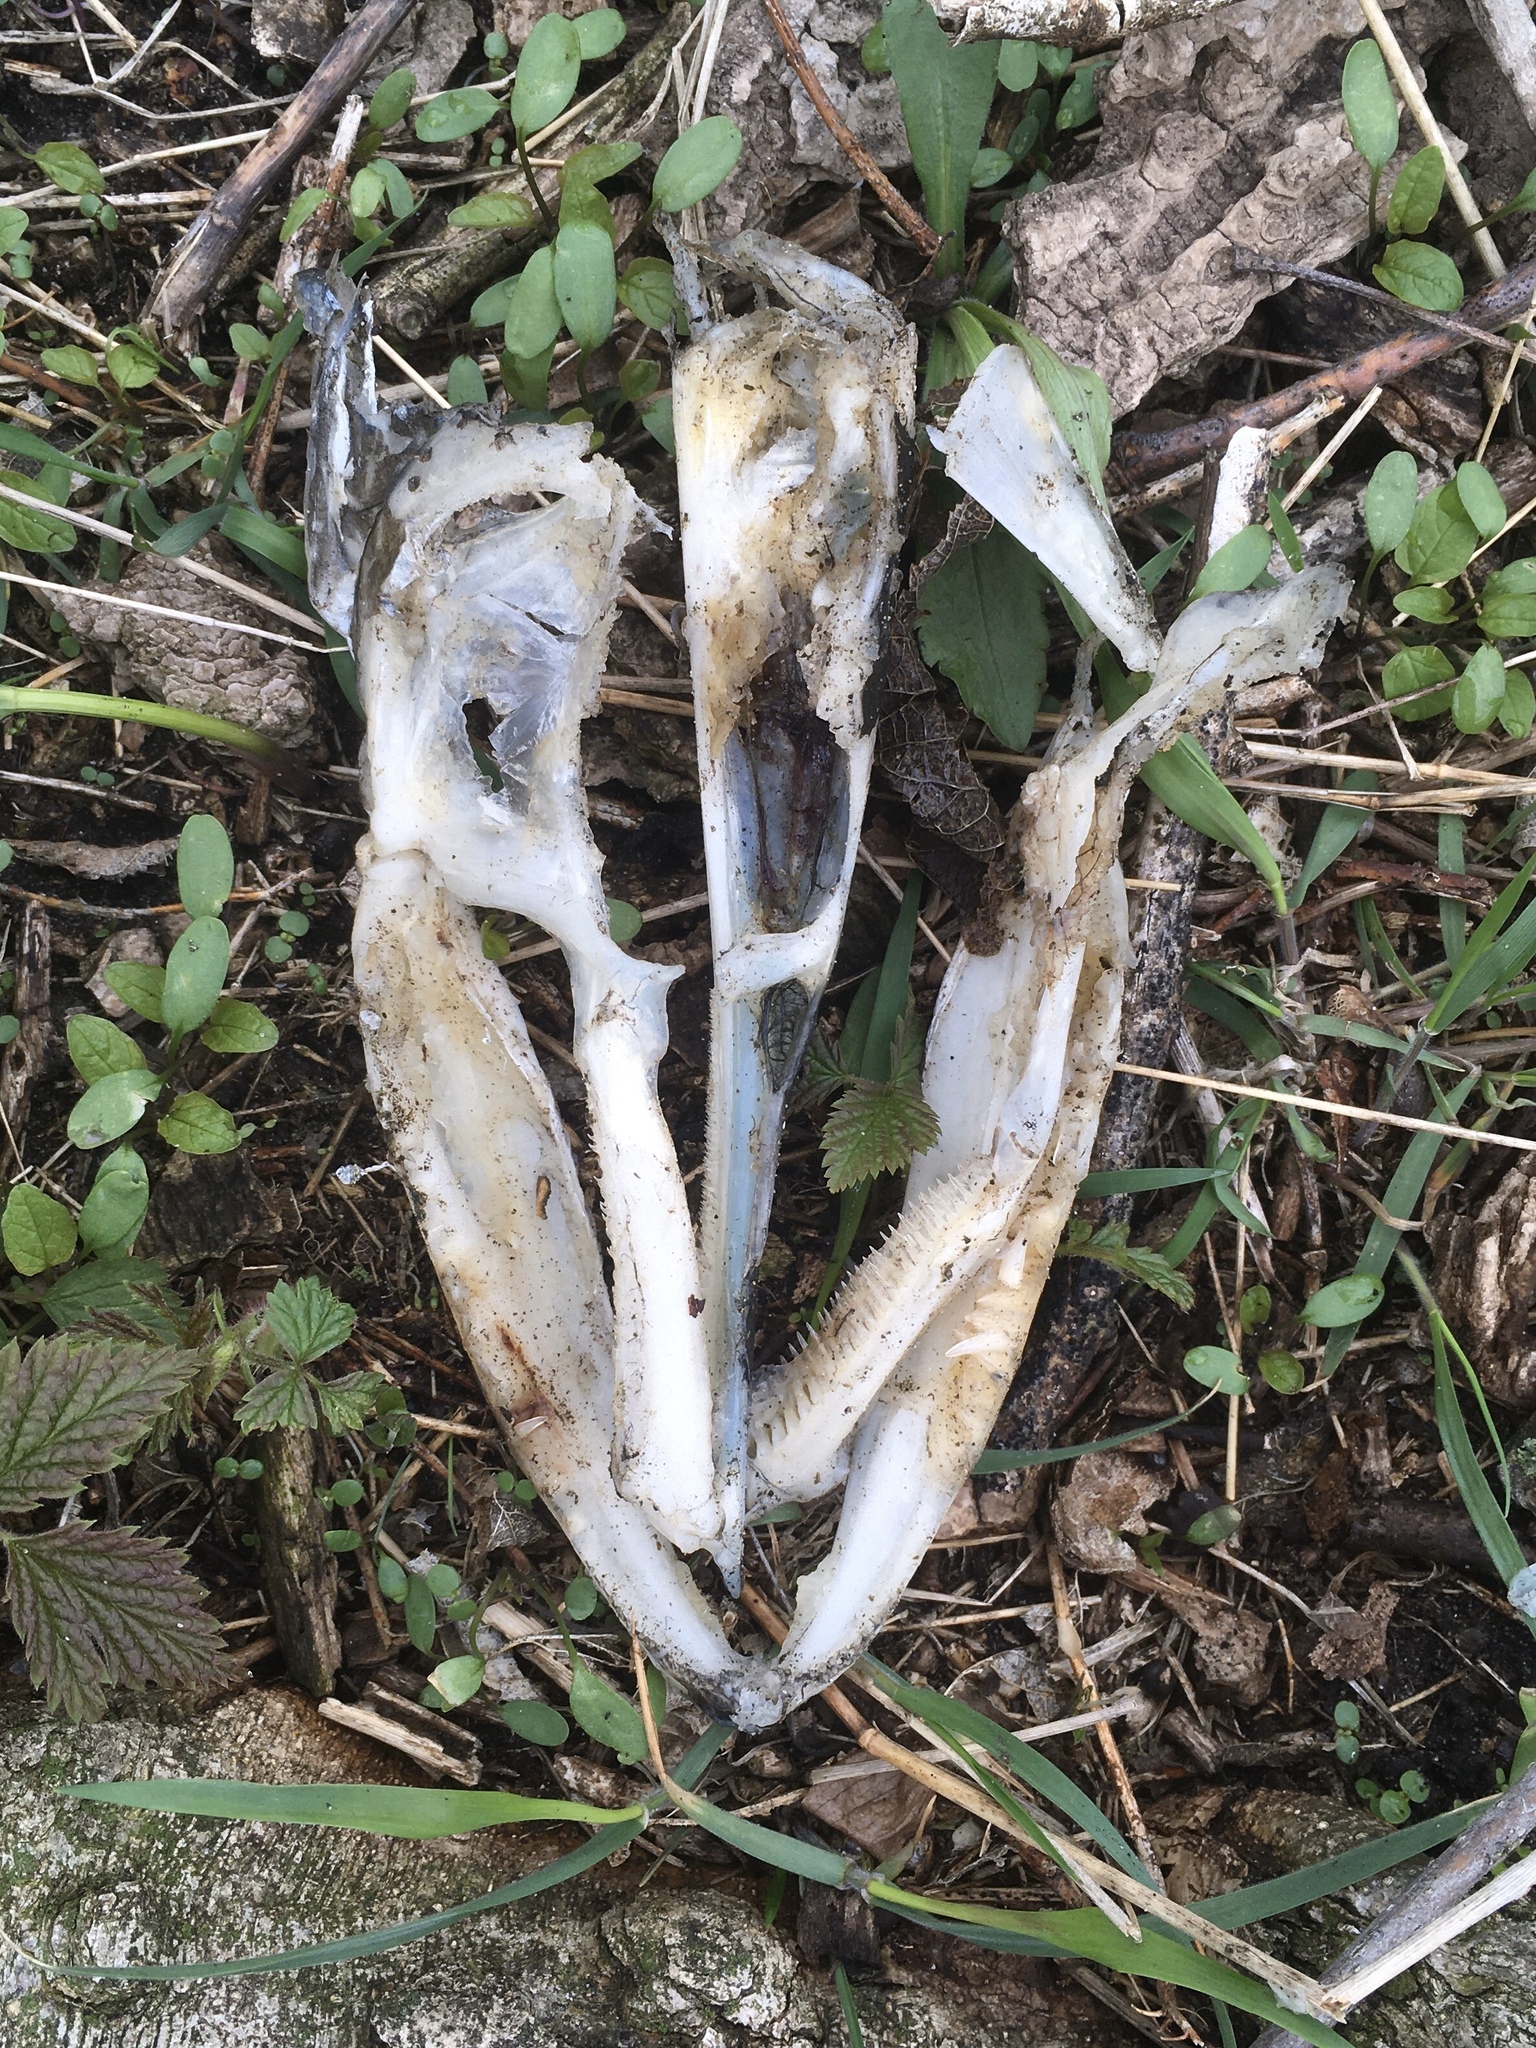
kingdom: Animalia
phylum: Chordata
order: Esociformes
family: Esocidae
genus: Esox
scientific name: Esox lucius
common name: Northern pike
